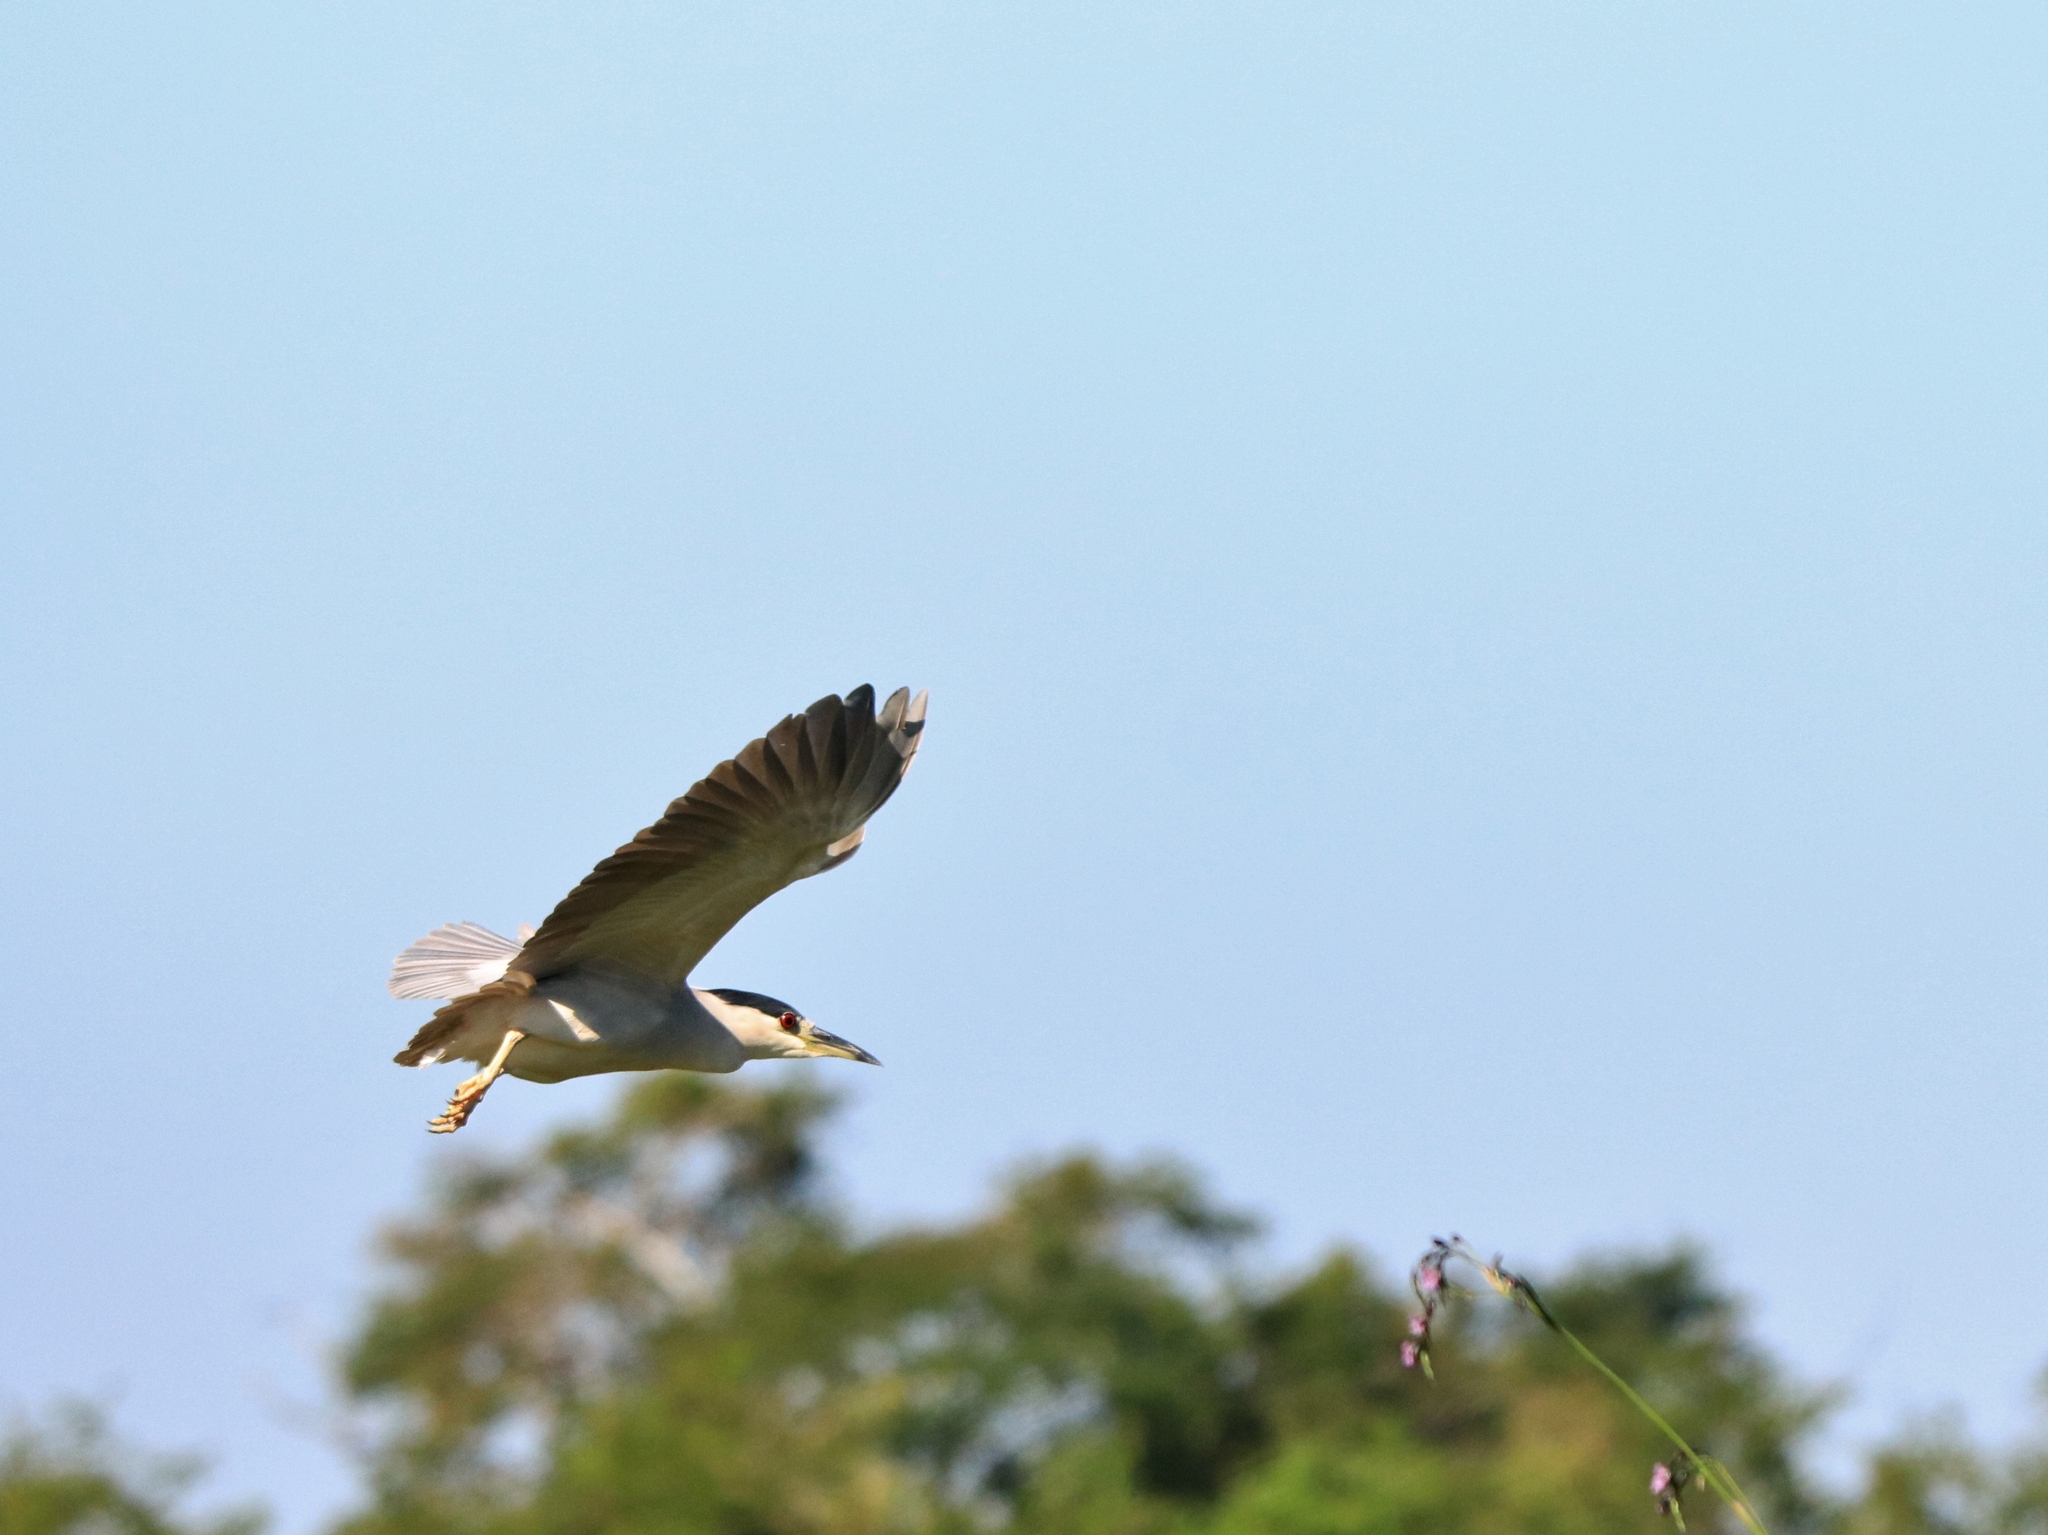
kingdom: Animalia
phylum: Chordata
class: Aves
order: Pelecaniformes
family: Ardeidae
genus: Nycticorax
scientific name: Nycticorax nycticorax
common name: Black-crowned night heron
